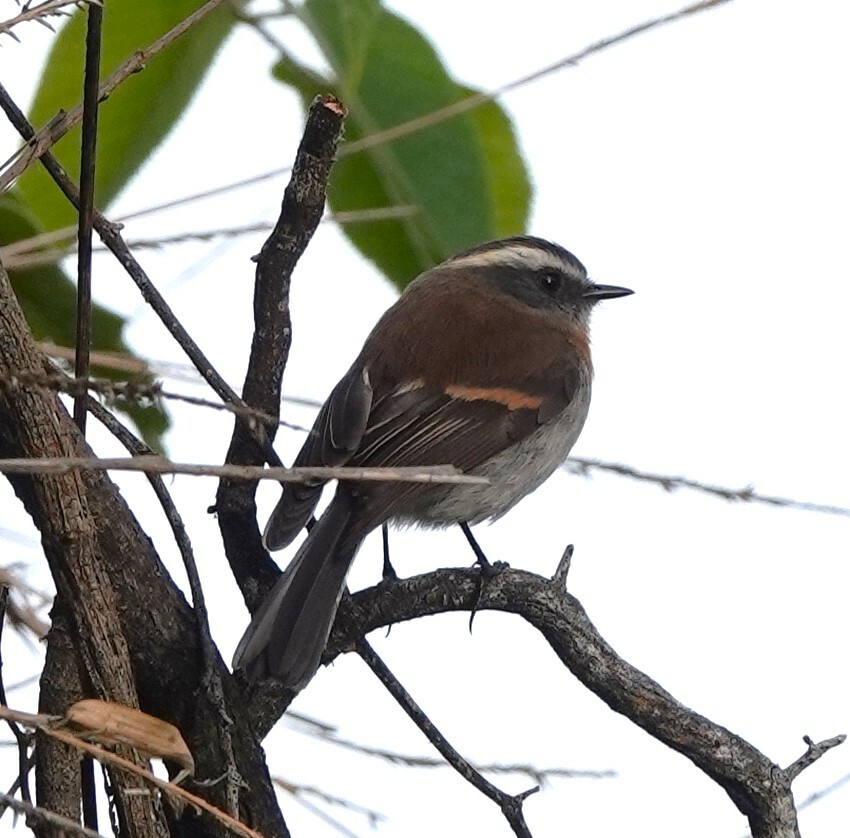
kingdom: Animalia
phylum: Chordata
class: Aves
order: Passeriformes
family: Tyrannidae
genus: Ochthoeca
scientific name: Ochthoeca rufipectoralis
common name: Rufous-breasted chat-tyrant
